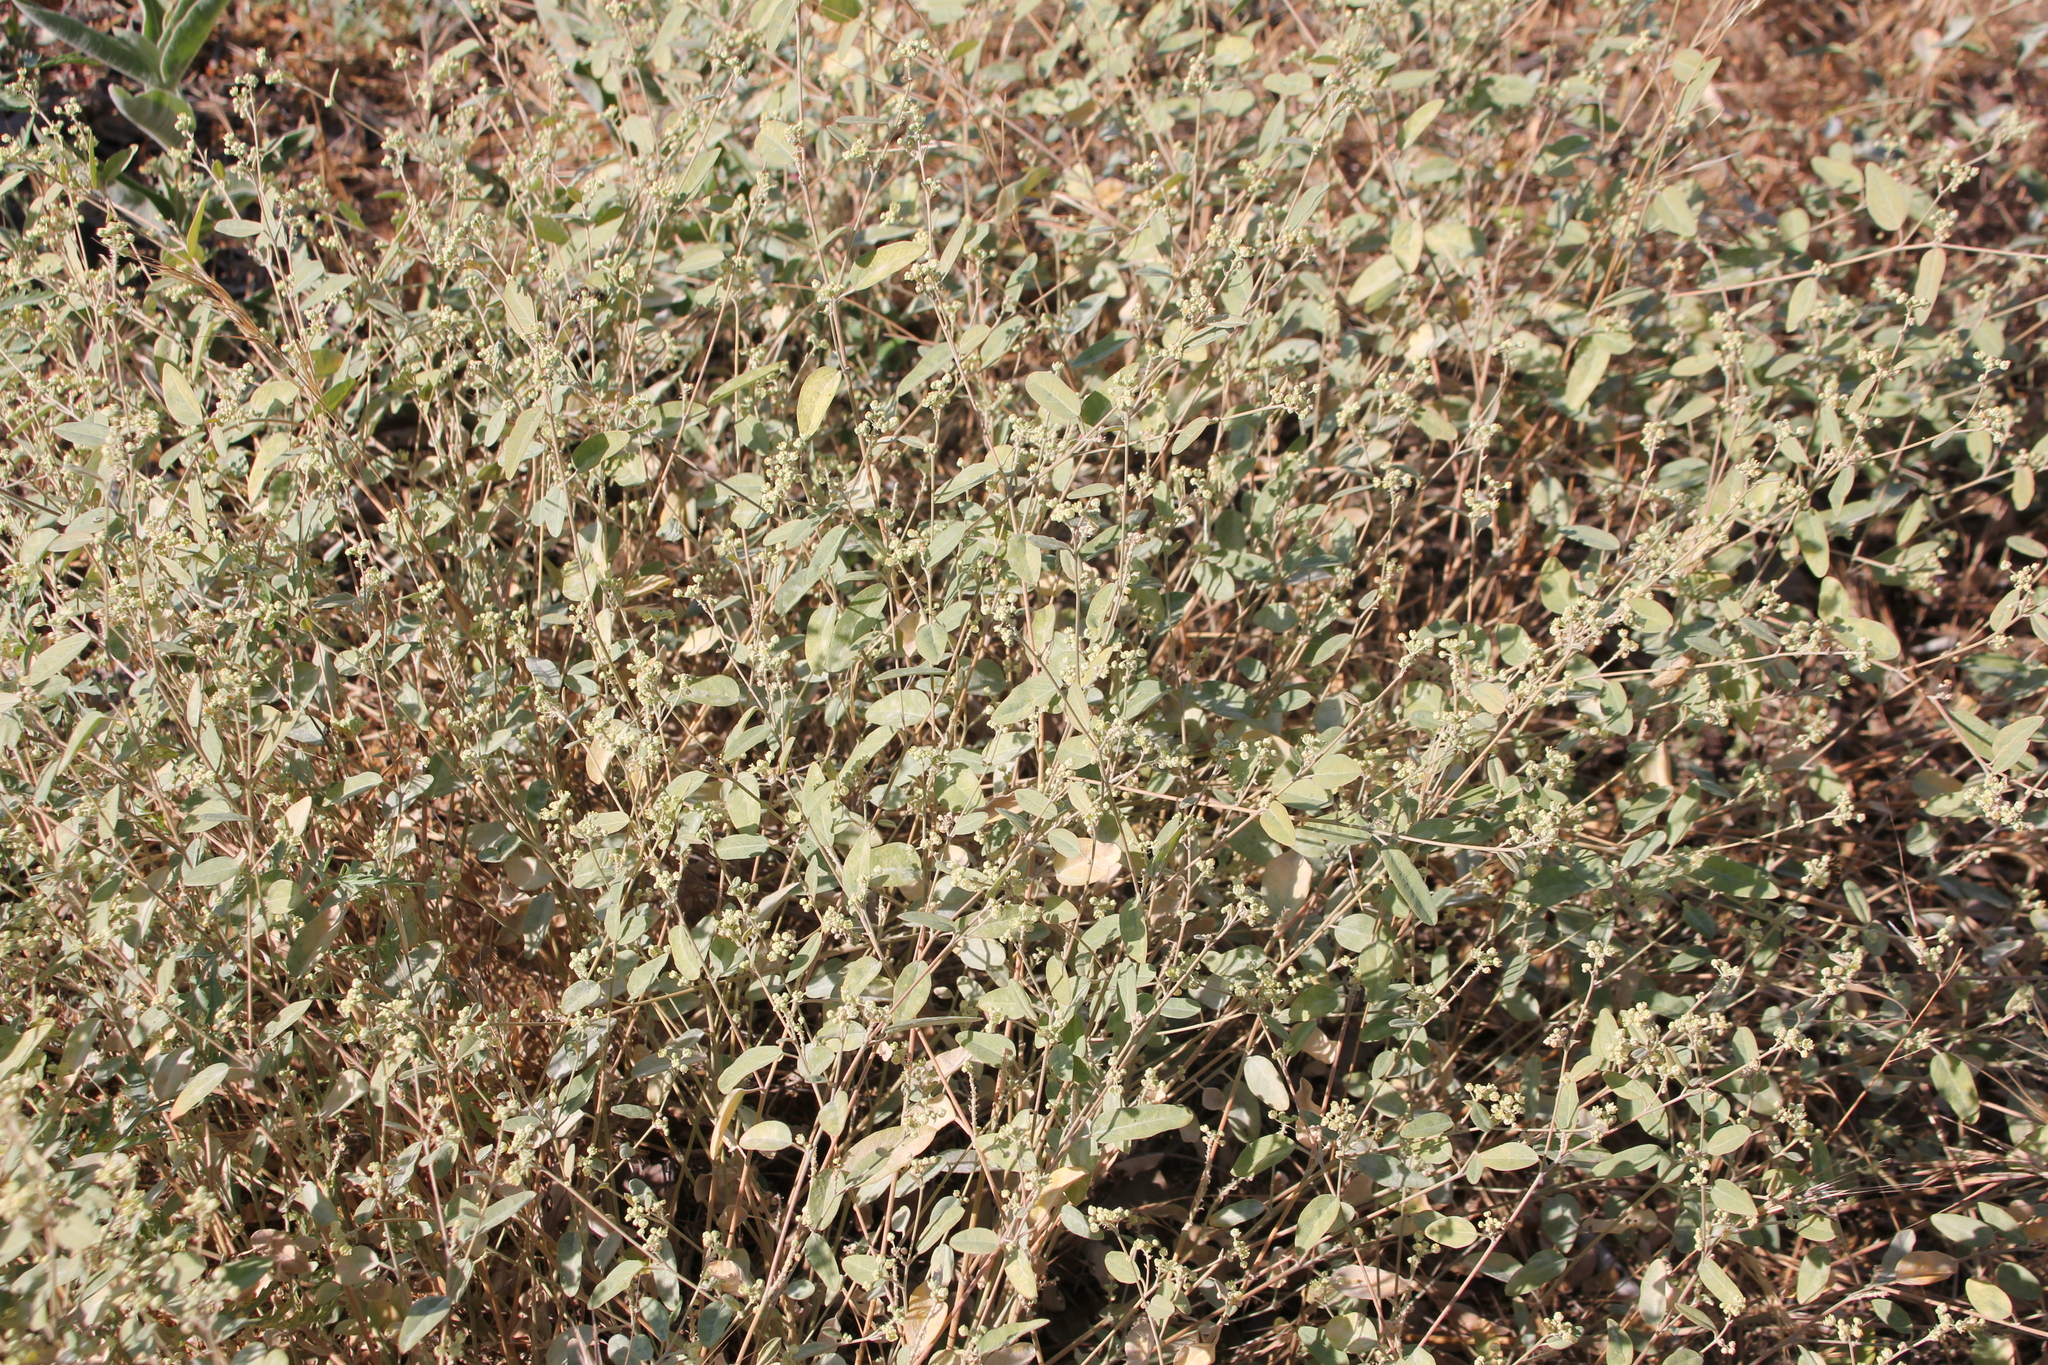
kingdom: Plantae
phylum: Tracheophyta
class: Magnoliopsida
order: Malpighiales
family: Euphorbiaceae
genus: Croton
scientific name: Croton californicus
